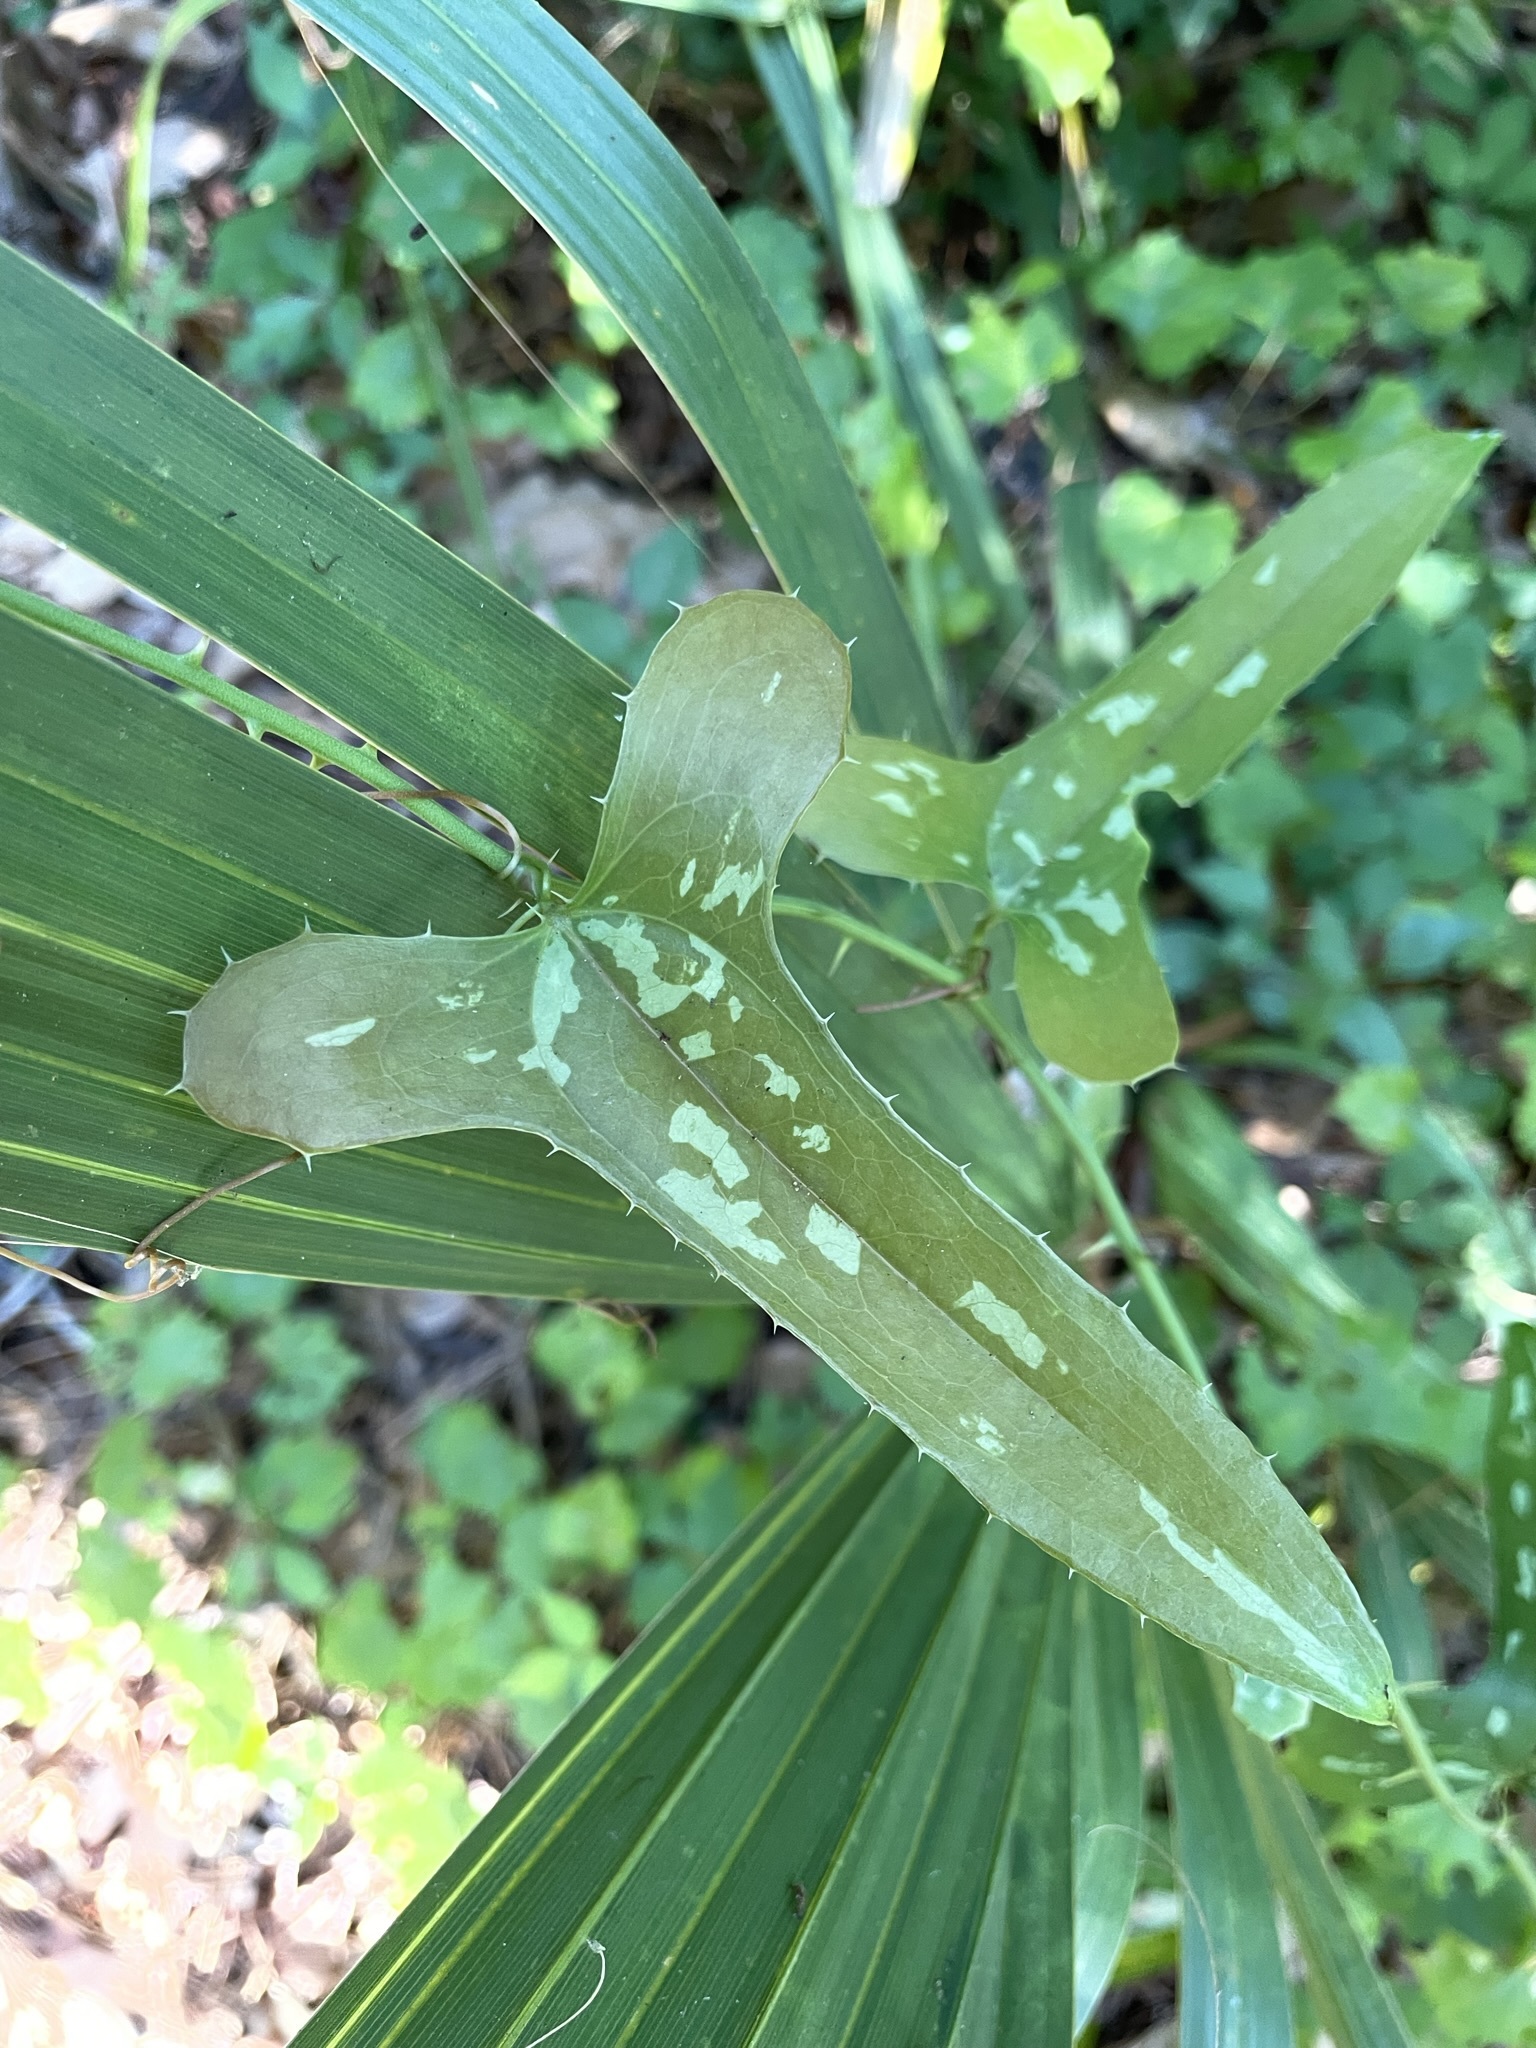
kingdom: Plantae
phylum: Tracheophyta
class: Liliopsida
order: Liliales
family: Smilacaceae
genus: Smilax
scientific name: Smilax bona-nox
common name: Catbrier
